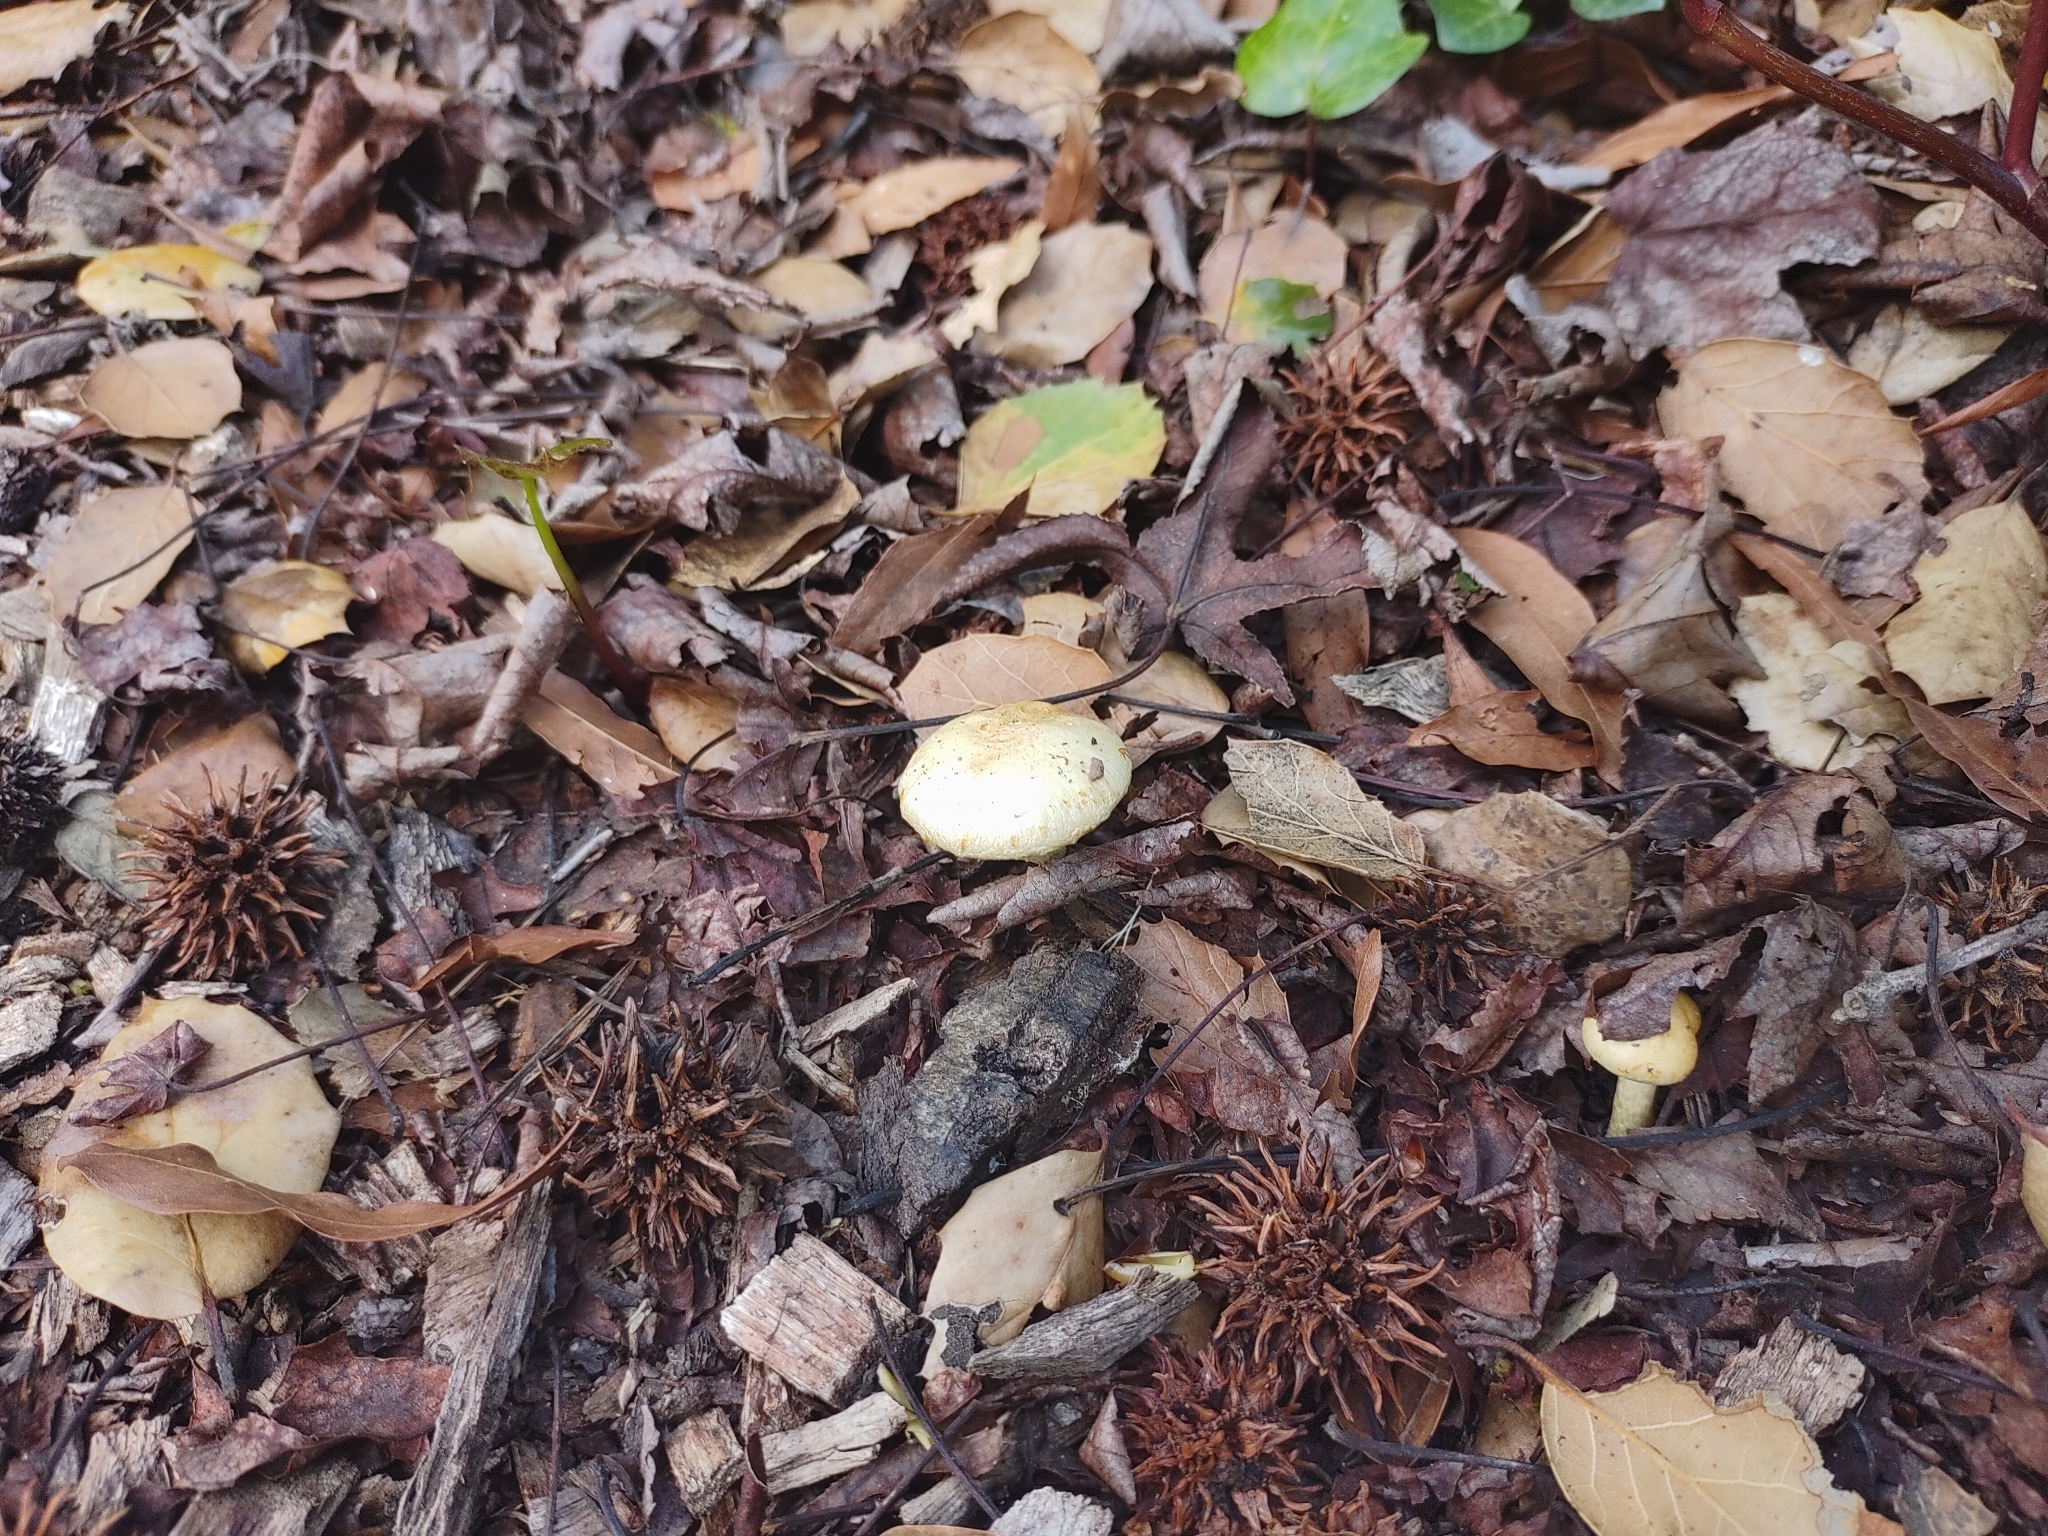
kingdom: Fungi
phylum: Basidiomycota
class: Agaricomycetes
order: Agaricales
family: Strophariaceae
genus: Leratiomyces
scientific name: Leratiomyces percevalii
